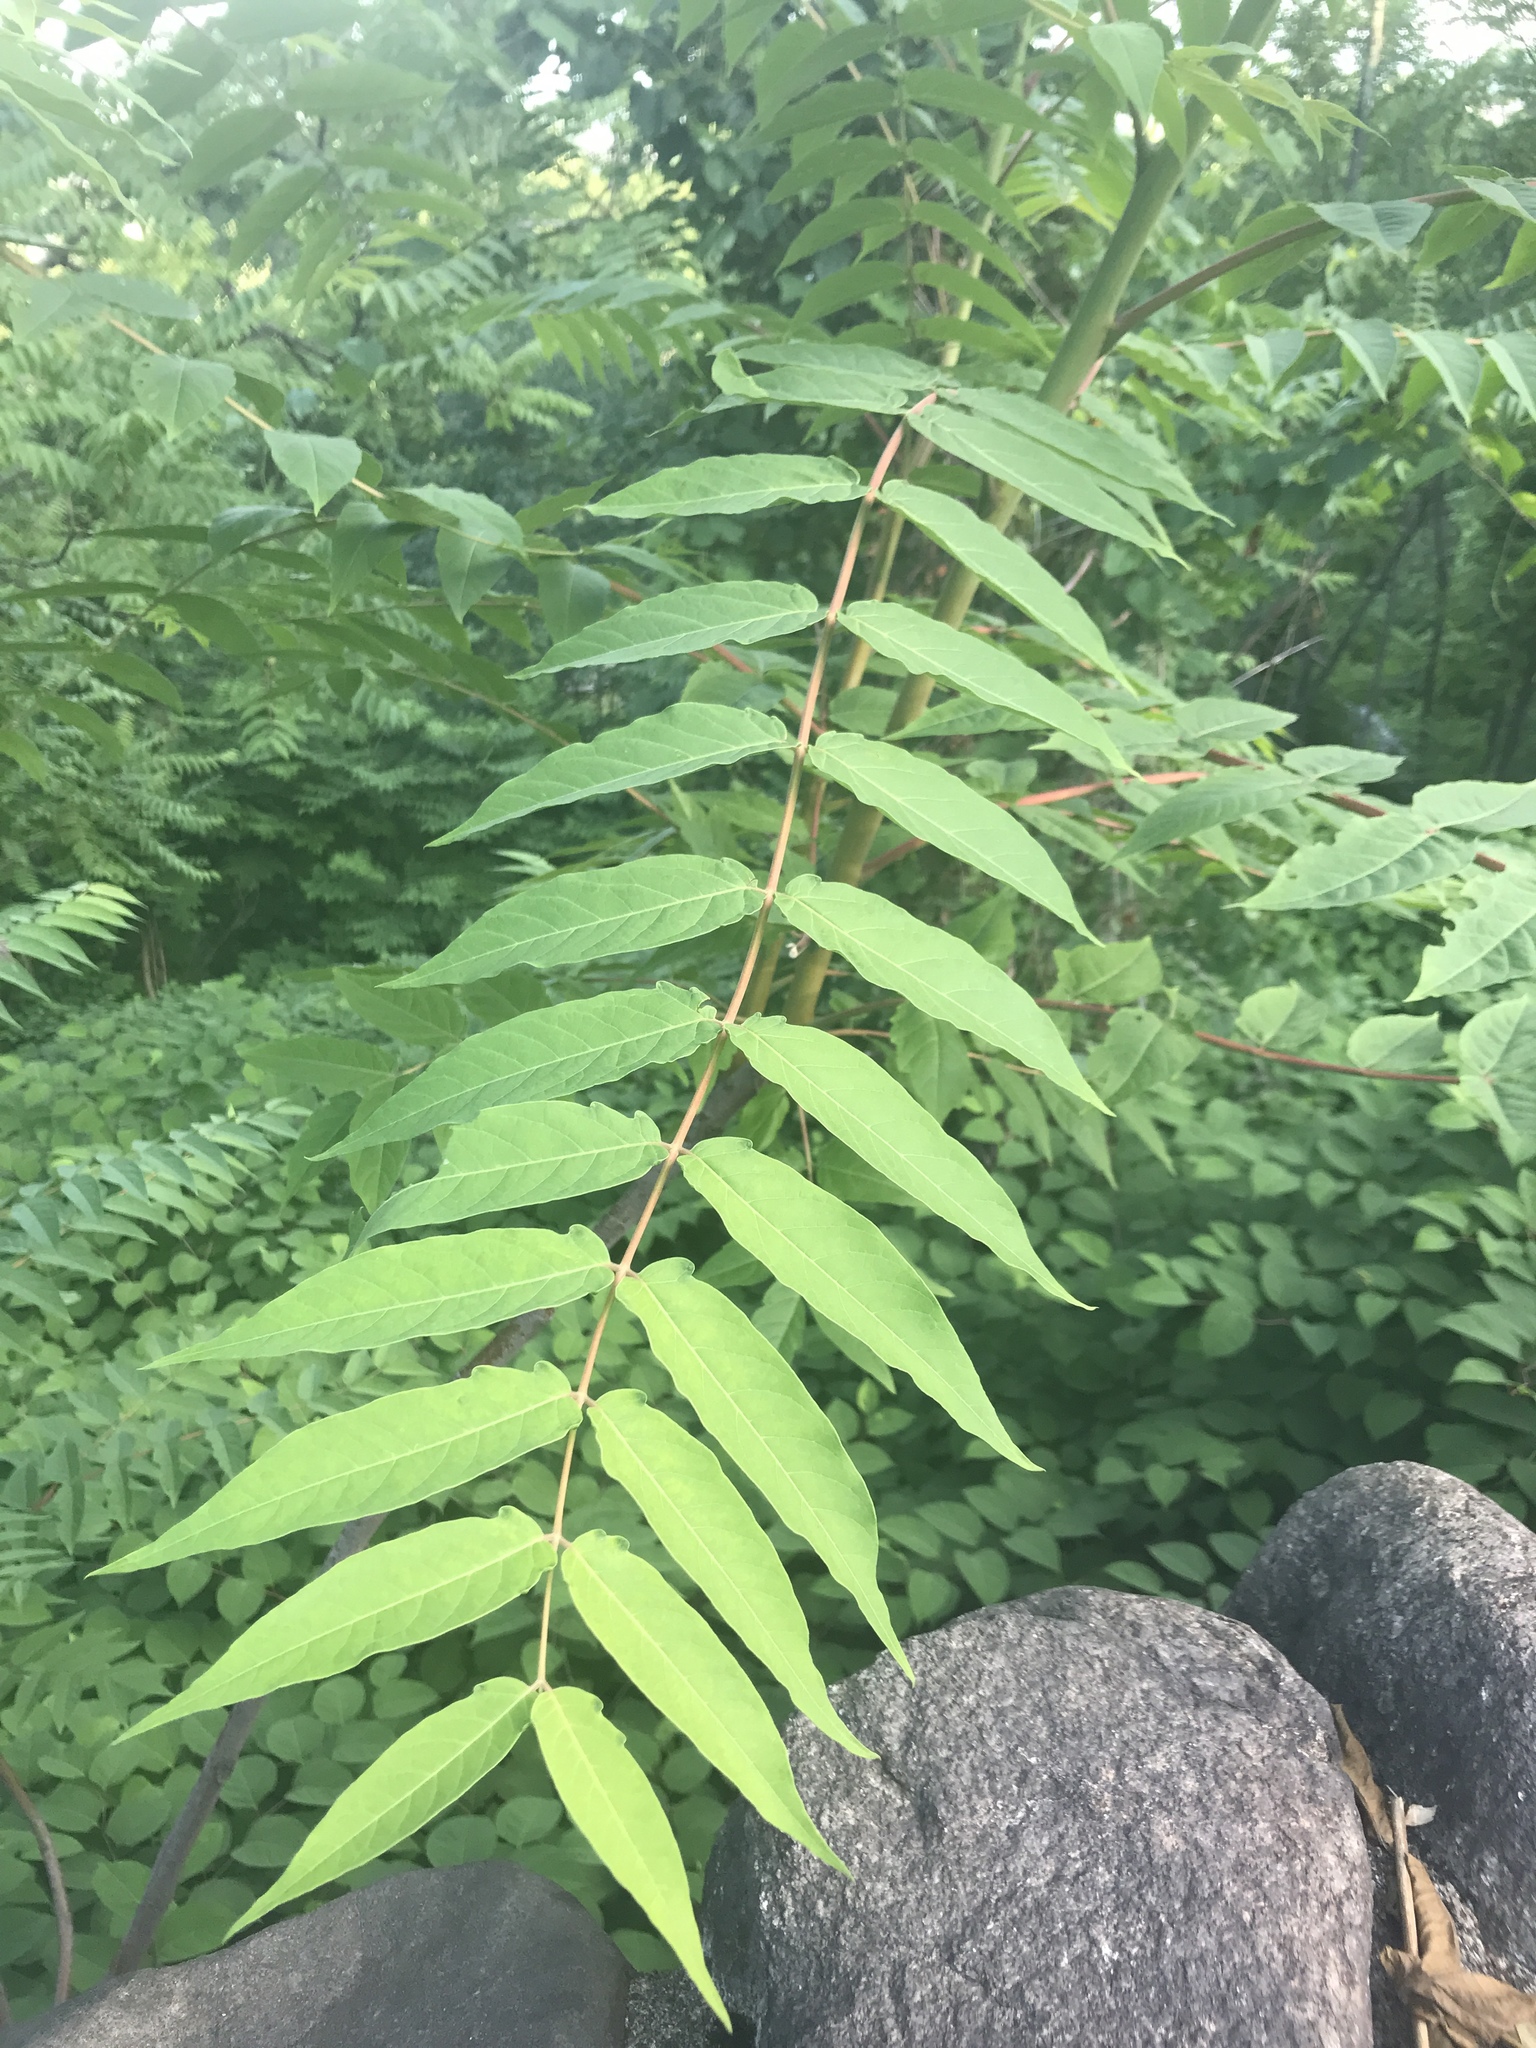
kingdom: Plantae
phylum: Tracheophyta
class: Magnoliopsida
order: Sapindales
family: Simaroubaceae
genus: Ailanthus
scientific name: Ailanthus altissima
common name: Tree-of-heaven
